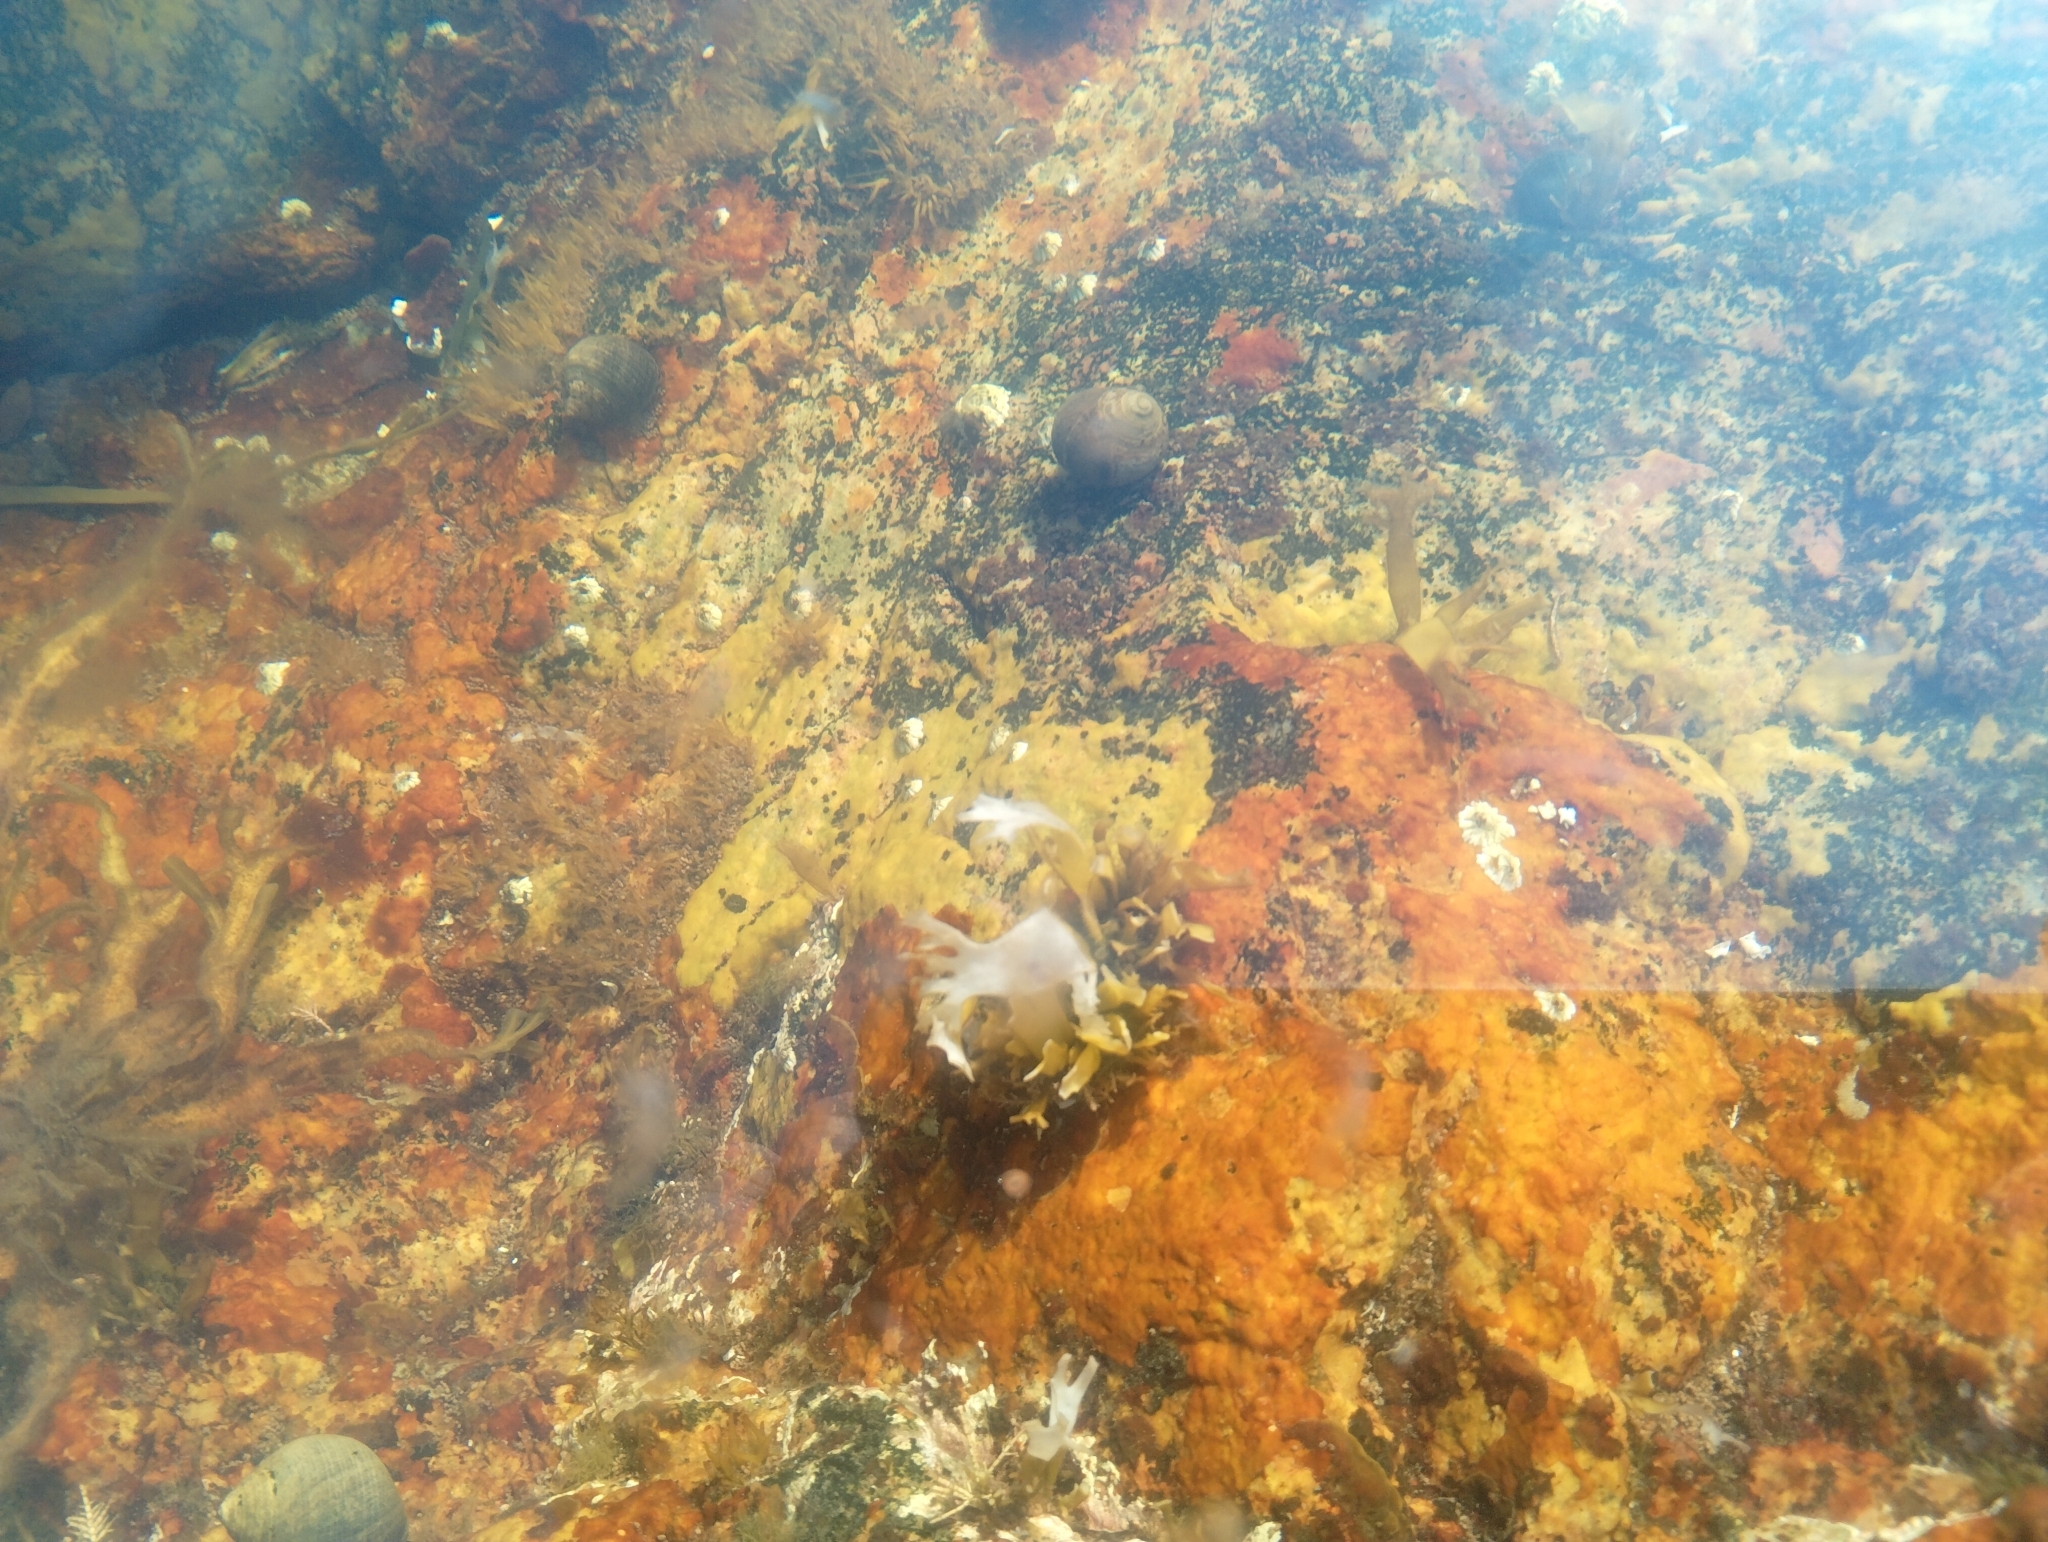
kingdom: Plantae
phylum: Rhodophyta
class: Florideophyceae
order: Gigartinales
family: Gigartinaceae
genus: Chondrus
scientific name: Chondrus crispus
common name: Carrageen
